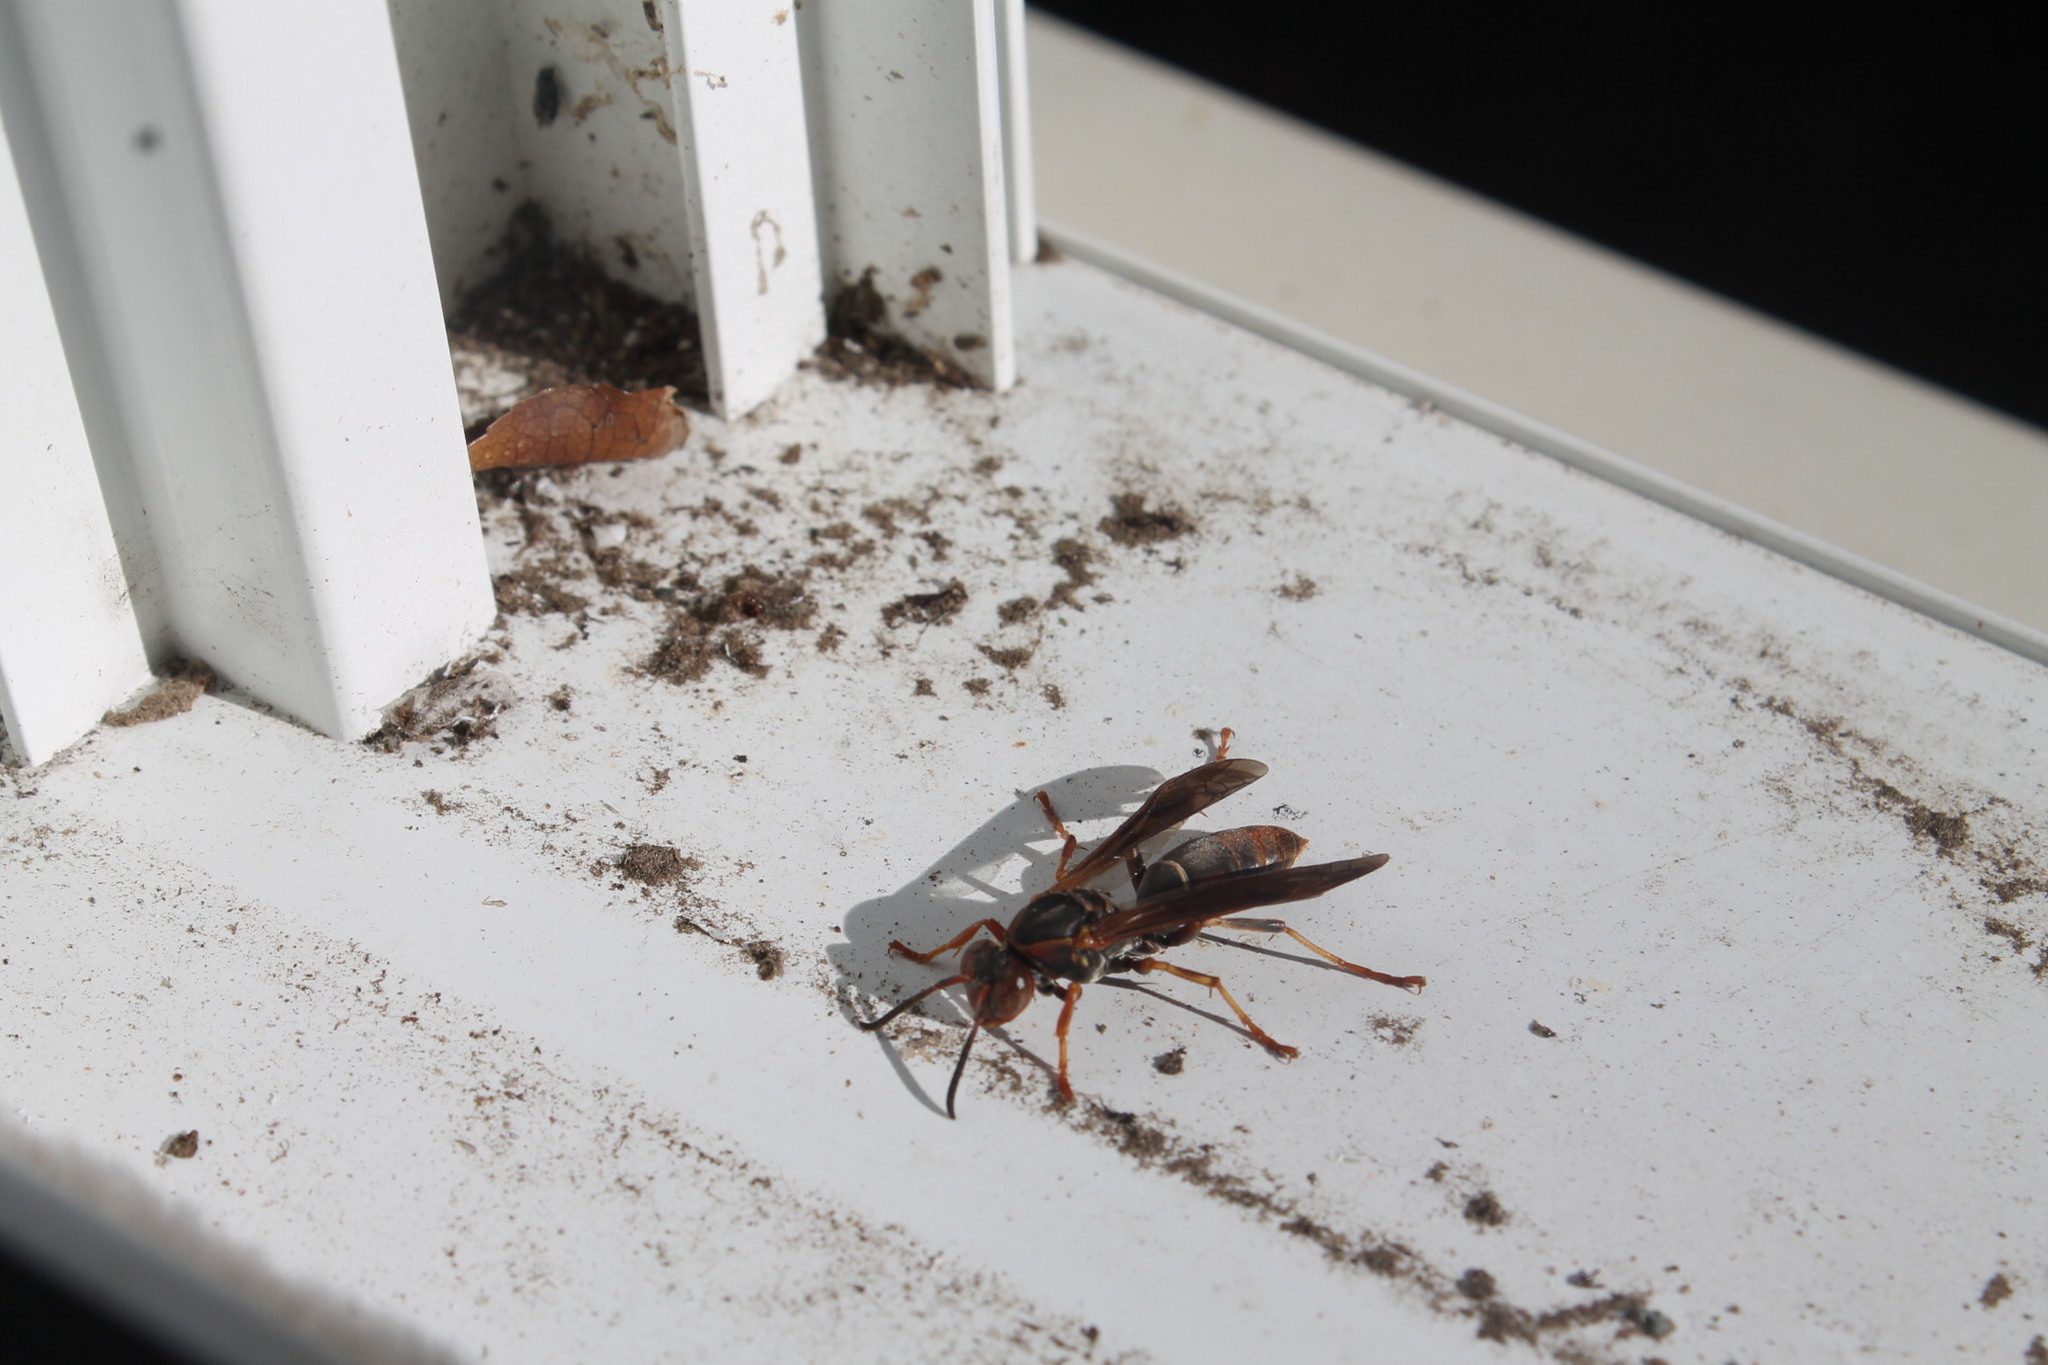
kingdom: Animalia
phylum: Arthropoda
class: Insecta
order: Hymenoptera
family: Eumenidae
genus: Polistes
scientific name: Polistes fuscatus
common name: Dark paper wasp
